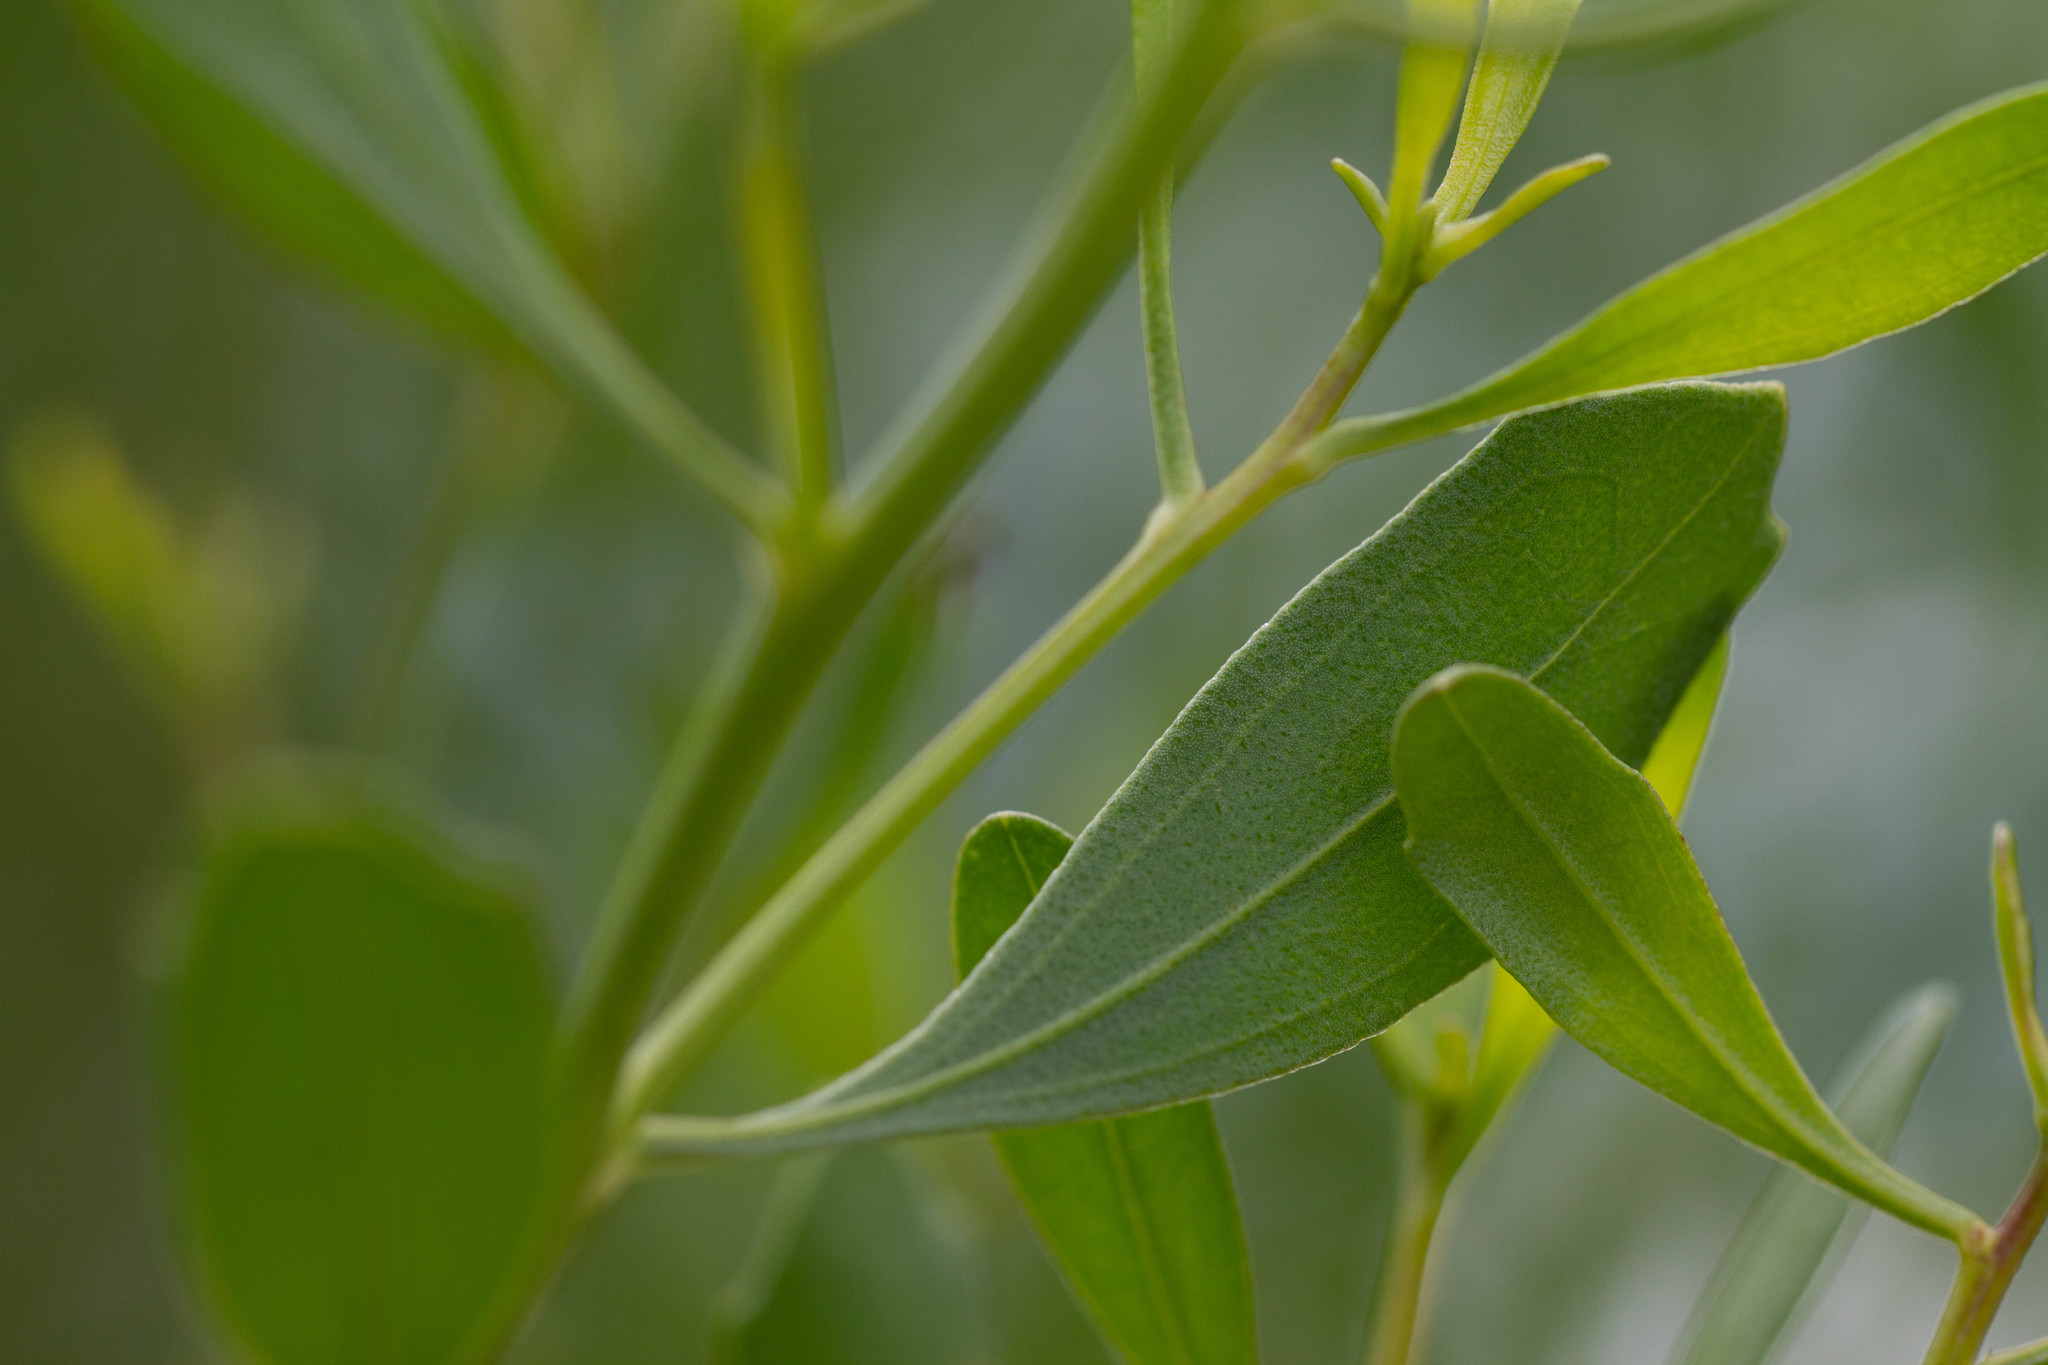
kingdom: Plantae
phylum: Tracheophyta
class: Magnoliopsida
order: Asterales
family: Asteraceae
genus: Baccharis
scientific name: Baccharis halimifolia
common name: Eastern baccharis
